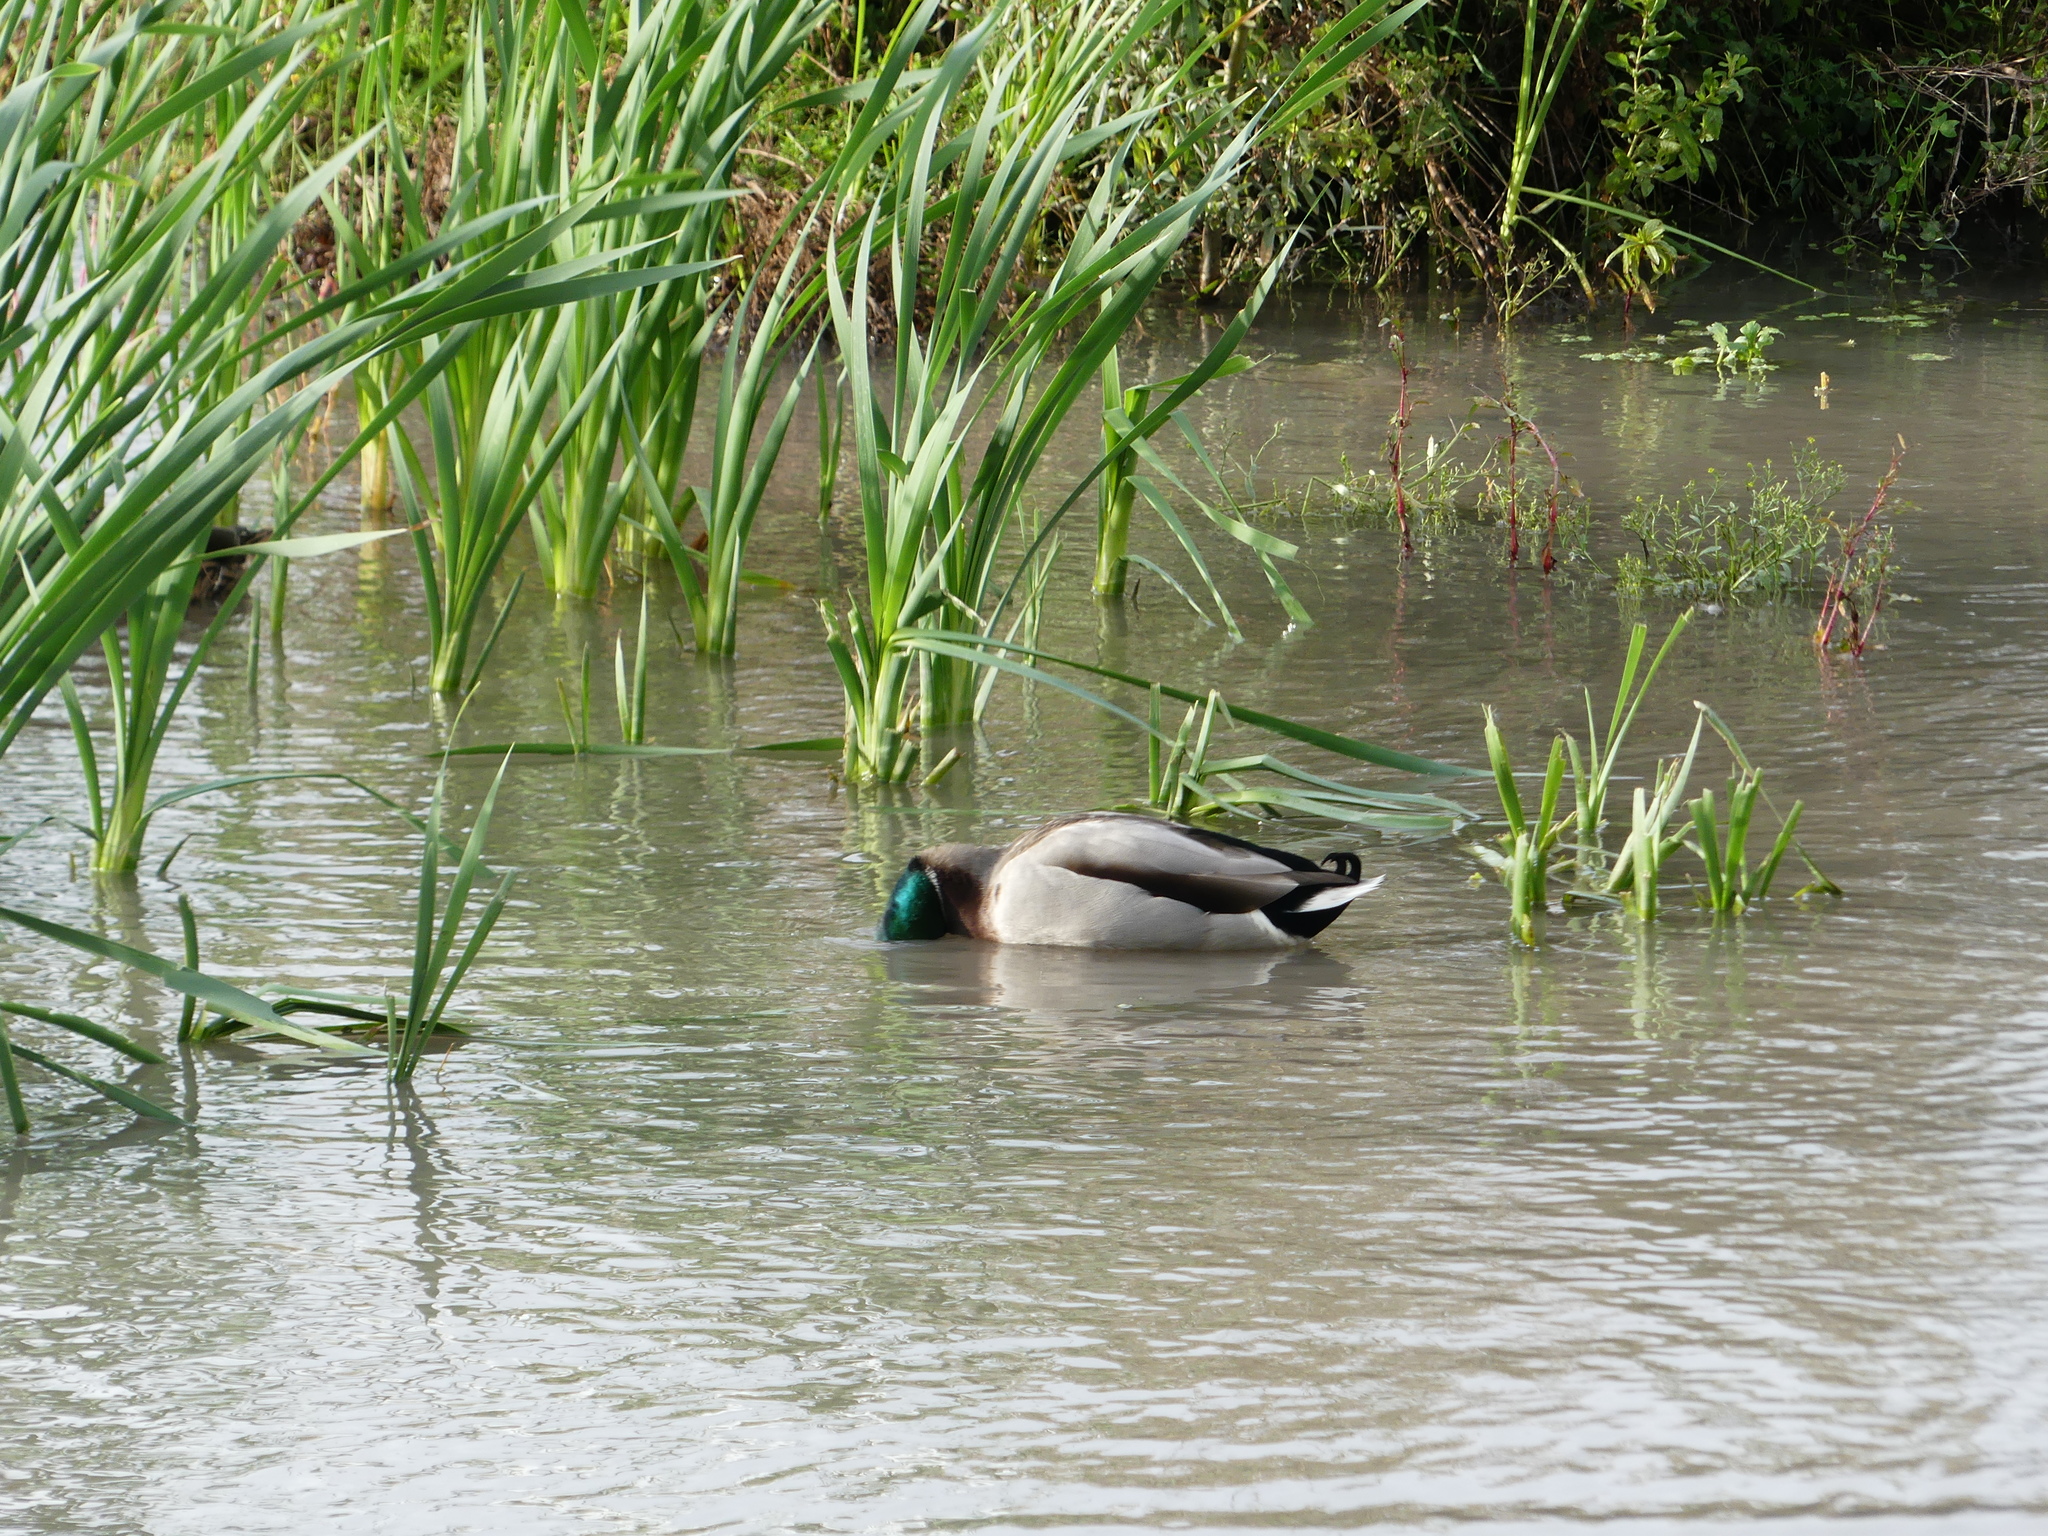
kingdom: Animalia
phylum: Chordata
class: Aves
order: Anseriformes
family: Anatidae
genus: Anas
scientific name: Anas platyrhynchos
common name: Mallard
